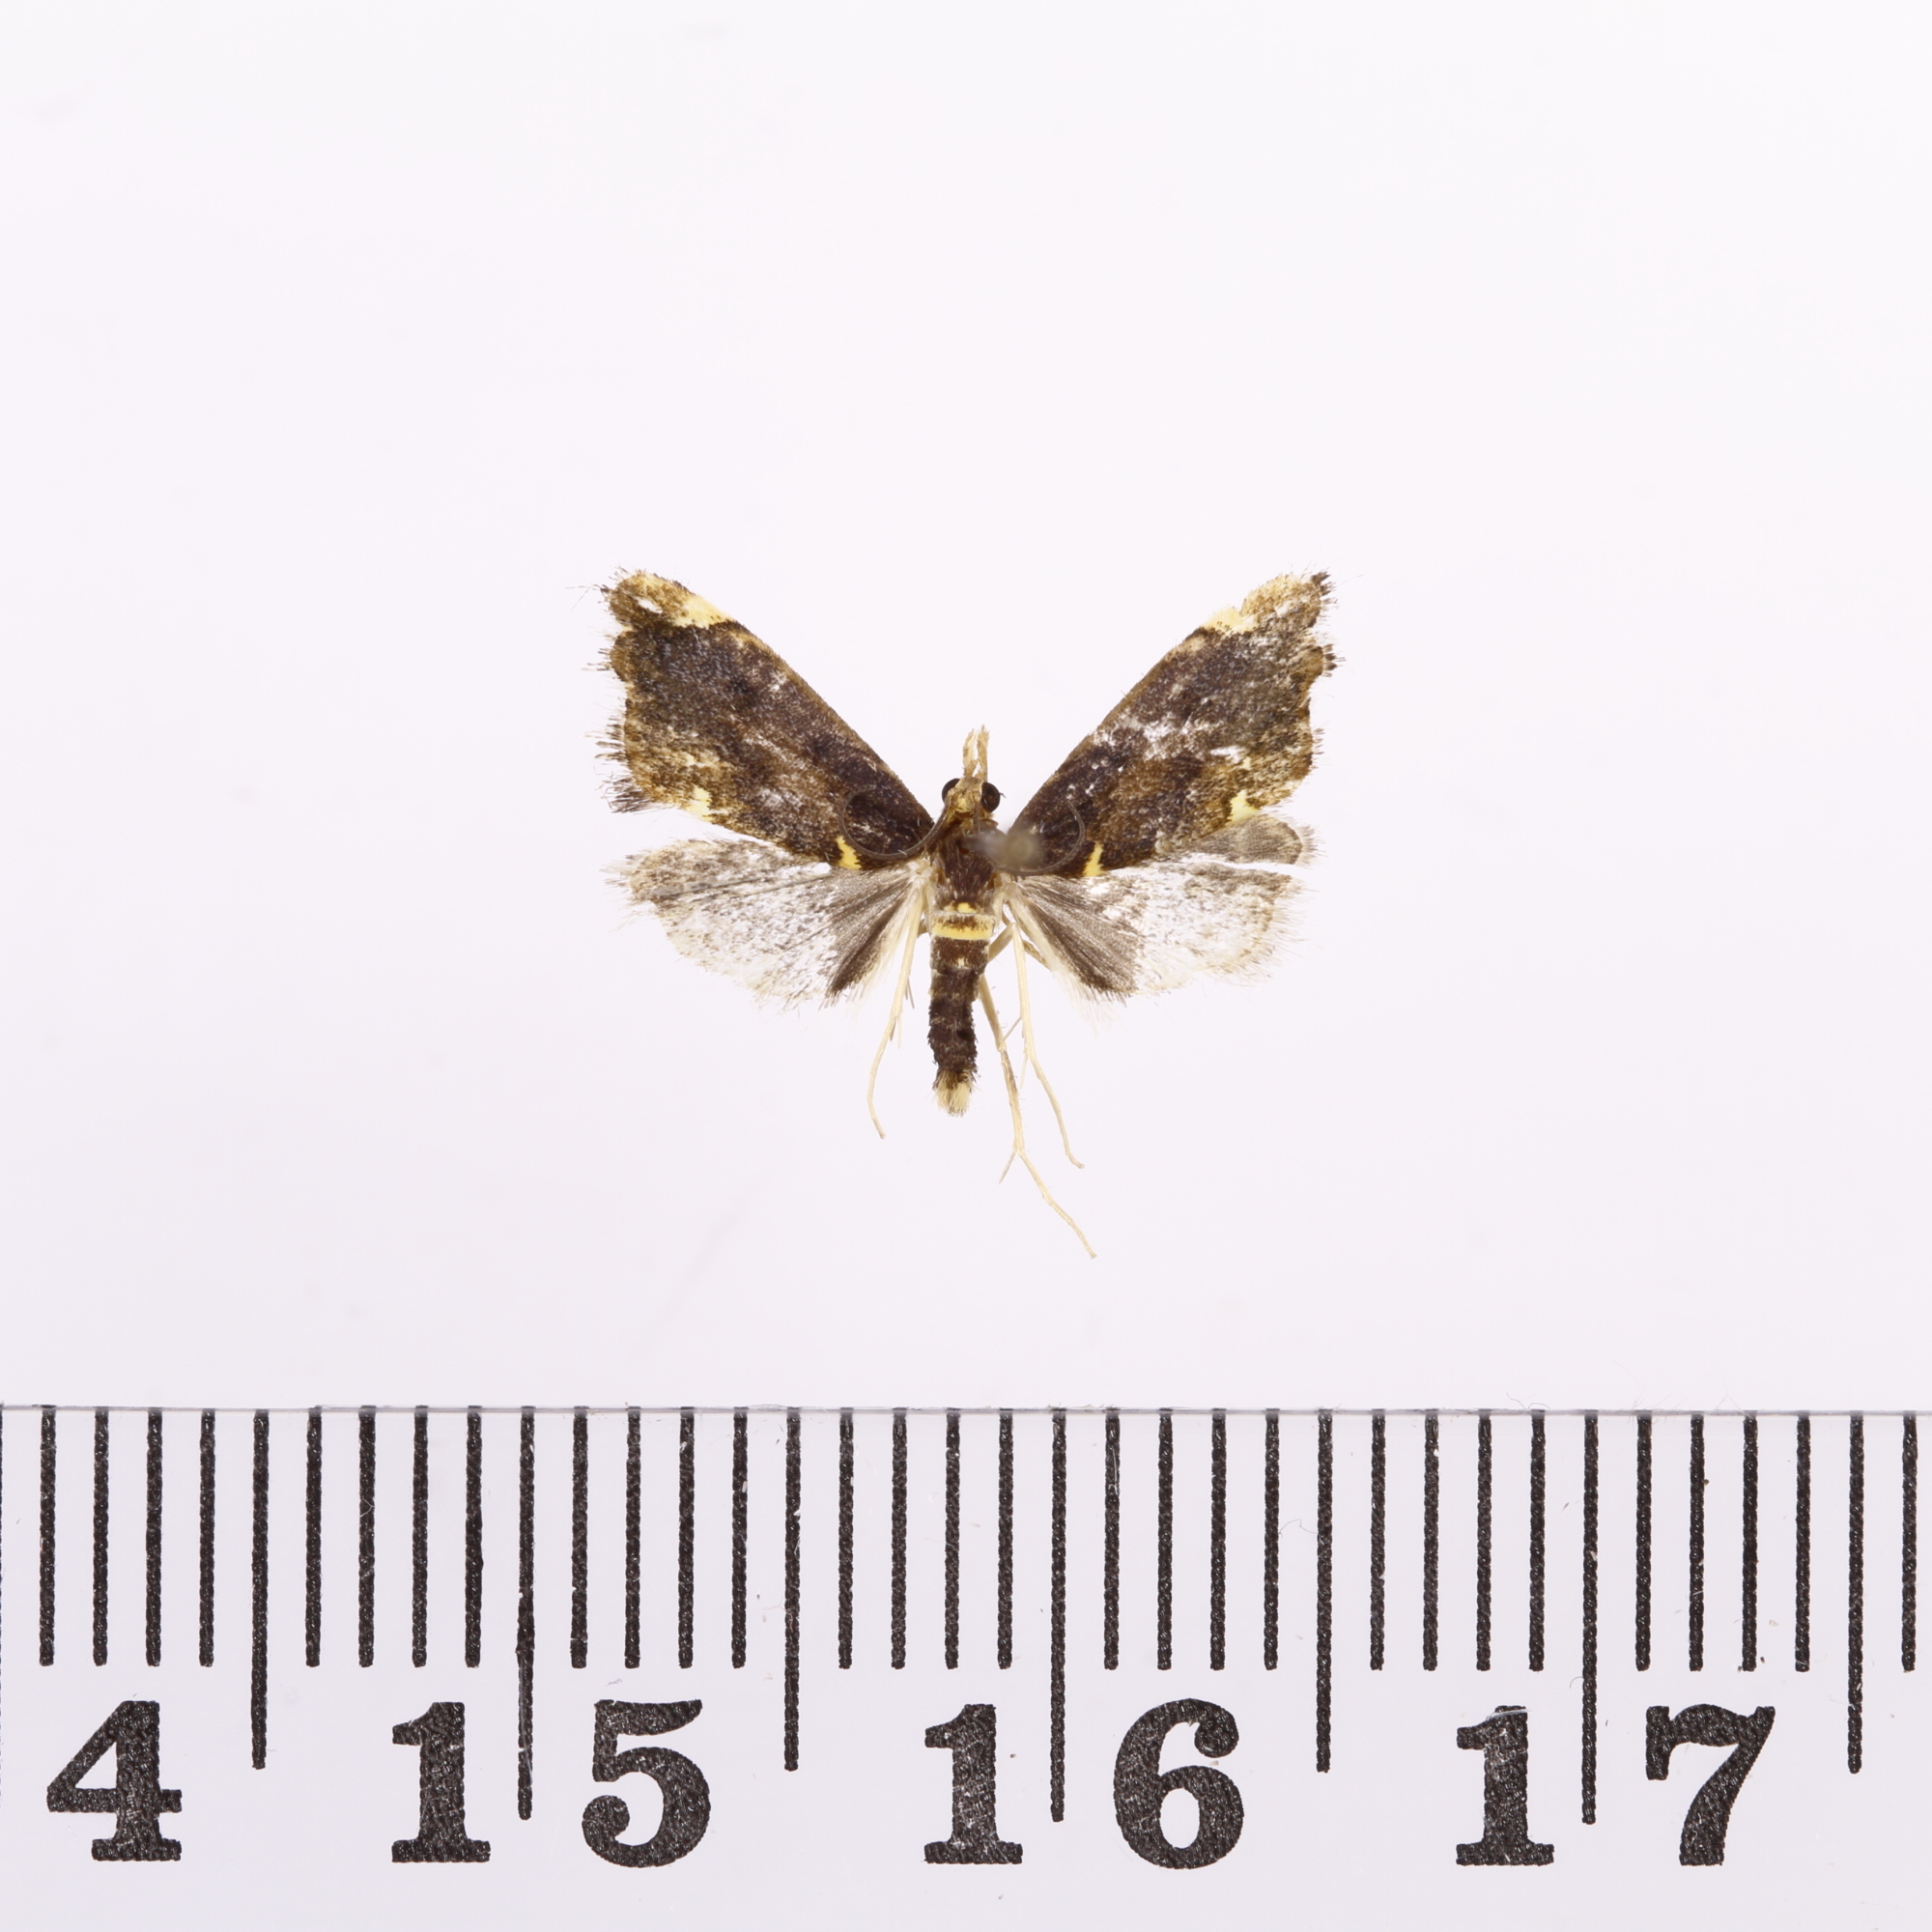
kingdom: Animalia
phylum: Arthropoda
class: Insecta
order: Lepidoptera
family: Crambidae
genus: Glaucocharis
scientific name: Glaucocharis pyrsophanes
